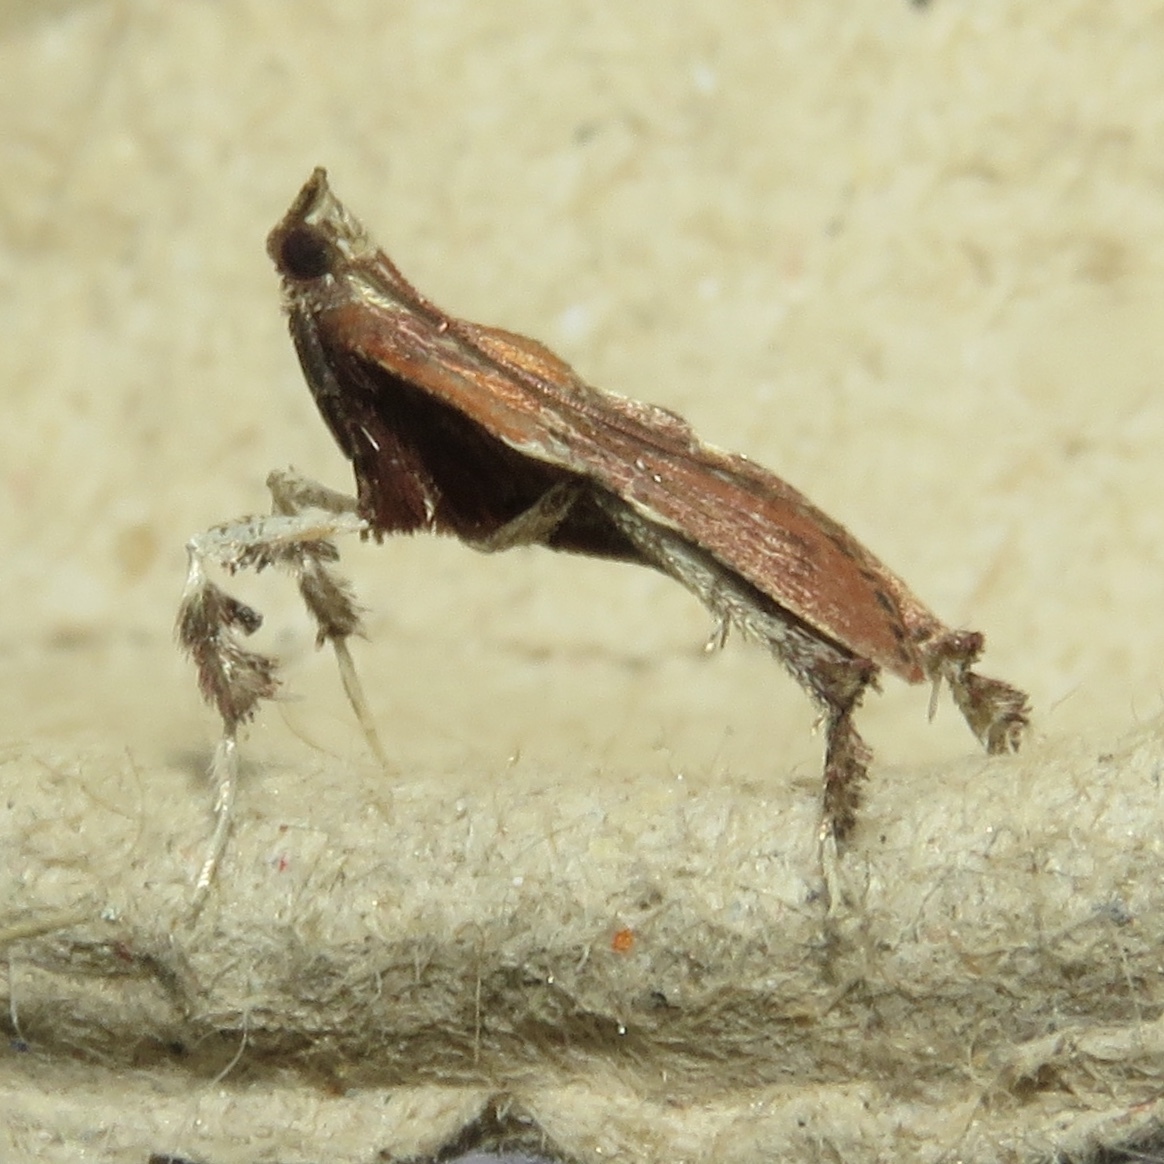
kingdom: Animalia
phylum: Arthropoda
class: Insecta
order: Lepidoptera
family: Pyralidae
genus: Galasa
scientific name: Galasa nigrinodis
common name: Boxwood leaftier moth
